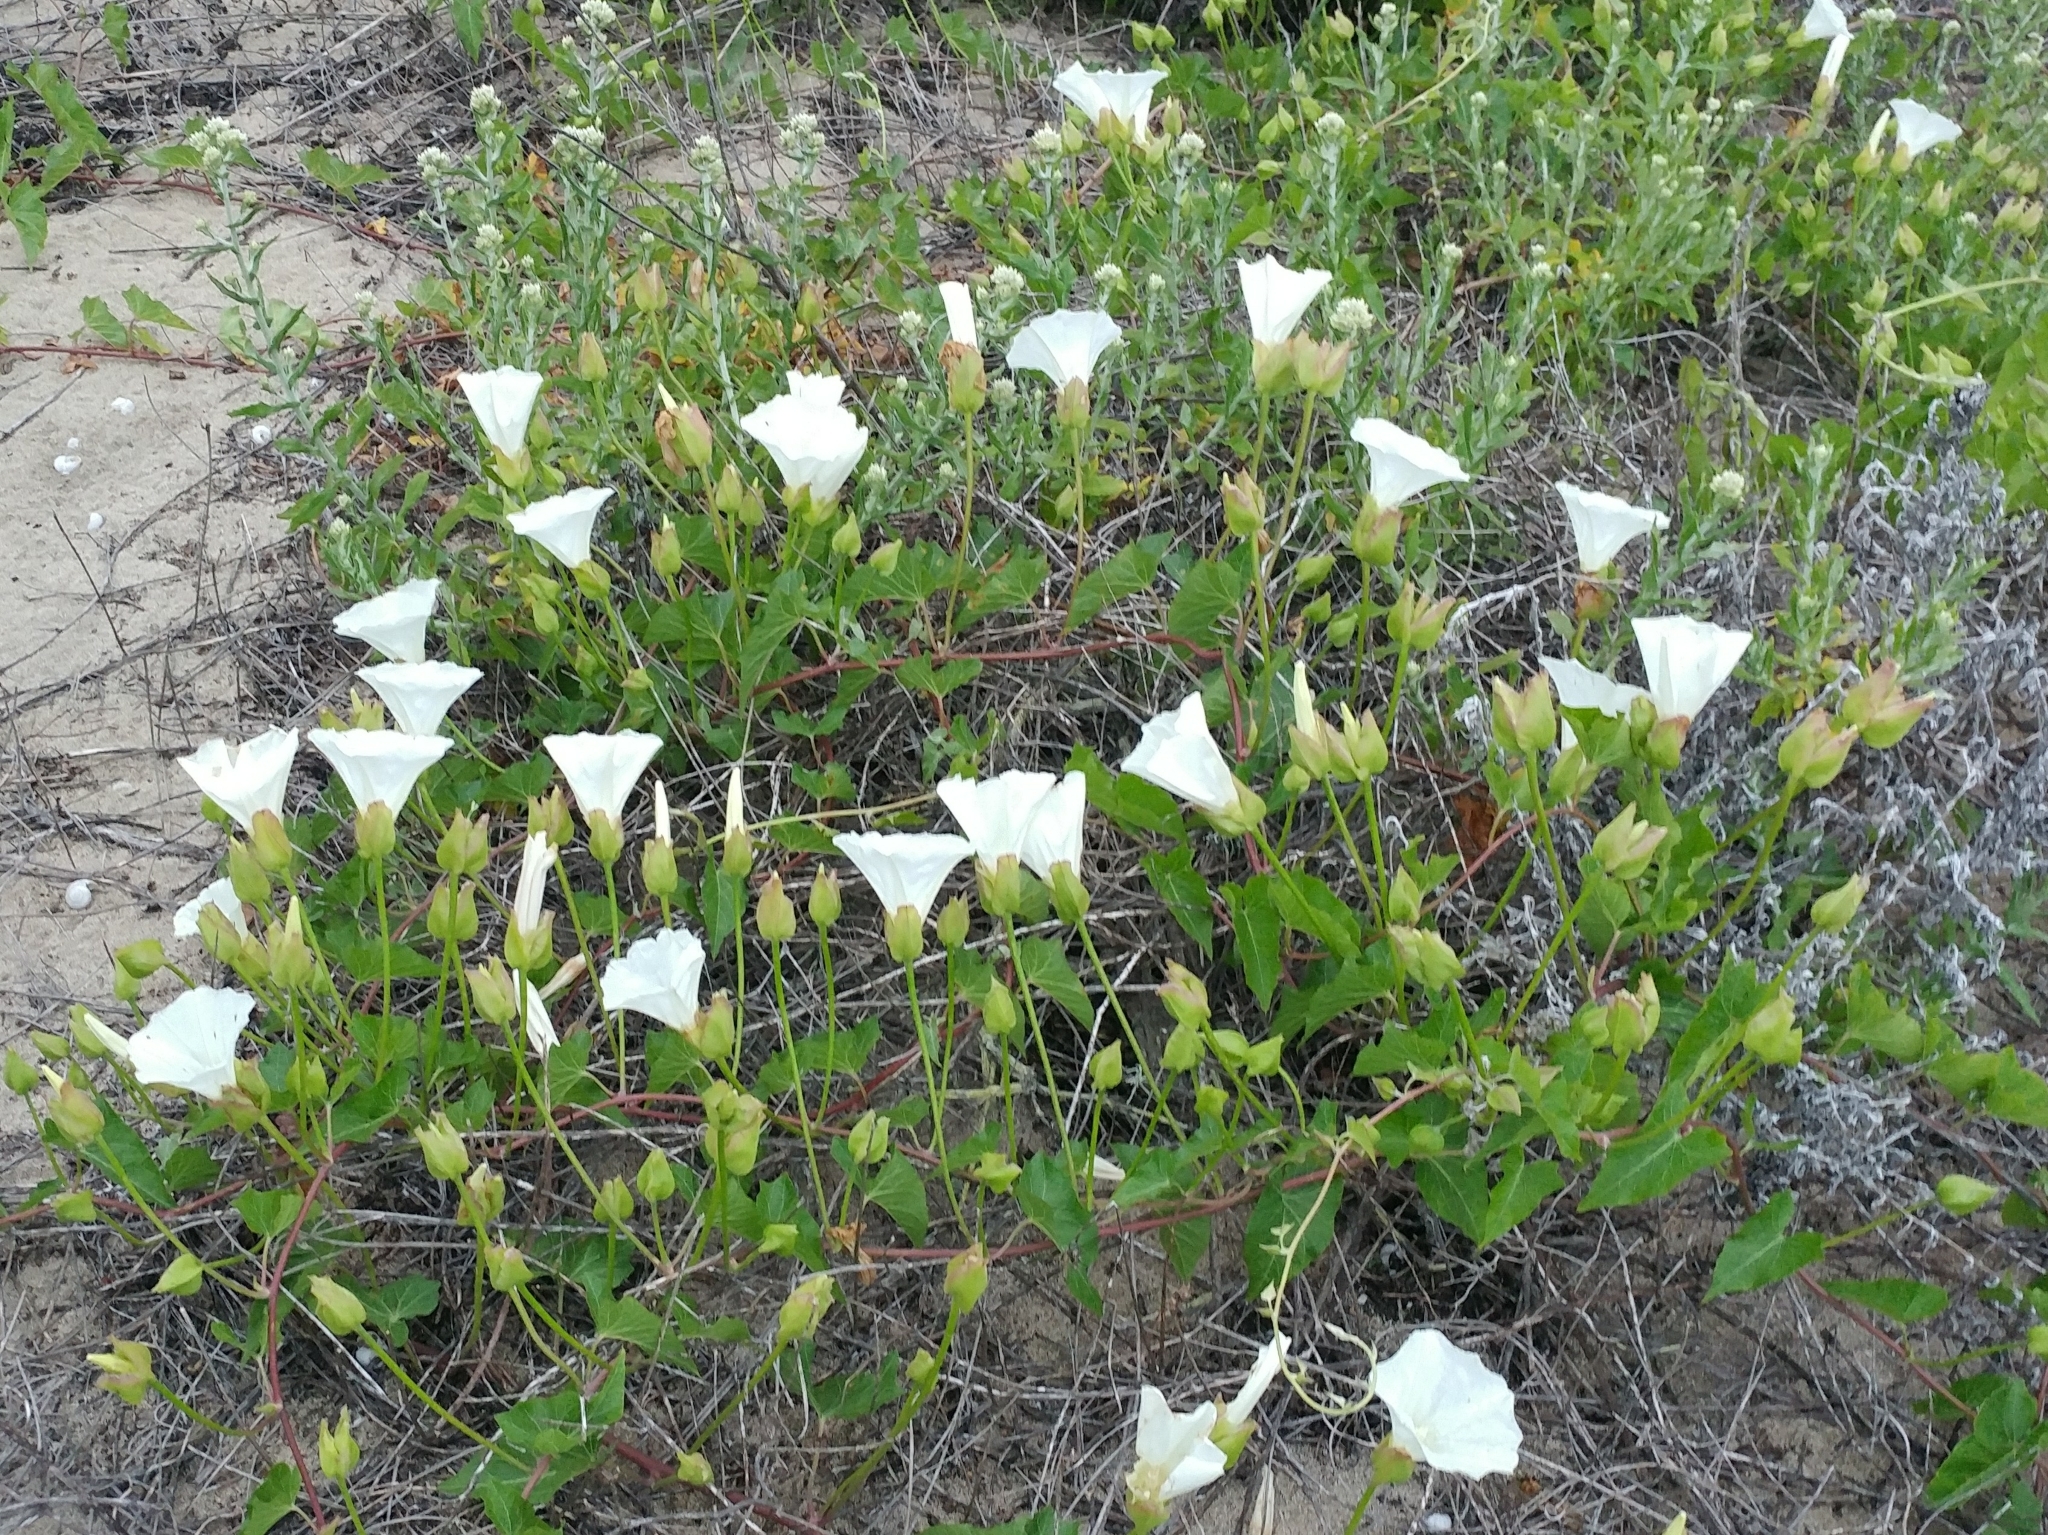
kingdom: Plantae
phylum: Tracheophyta
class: Magnoliopsida
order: Solanales
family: Convolvulaceae
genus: Calystegia
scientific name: Calystegia macrostegia
